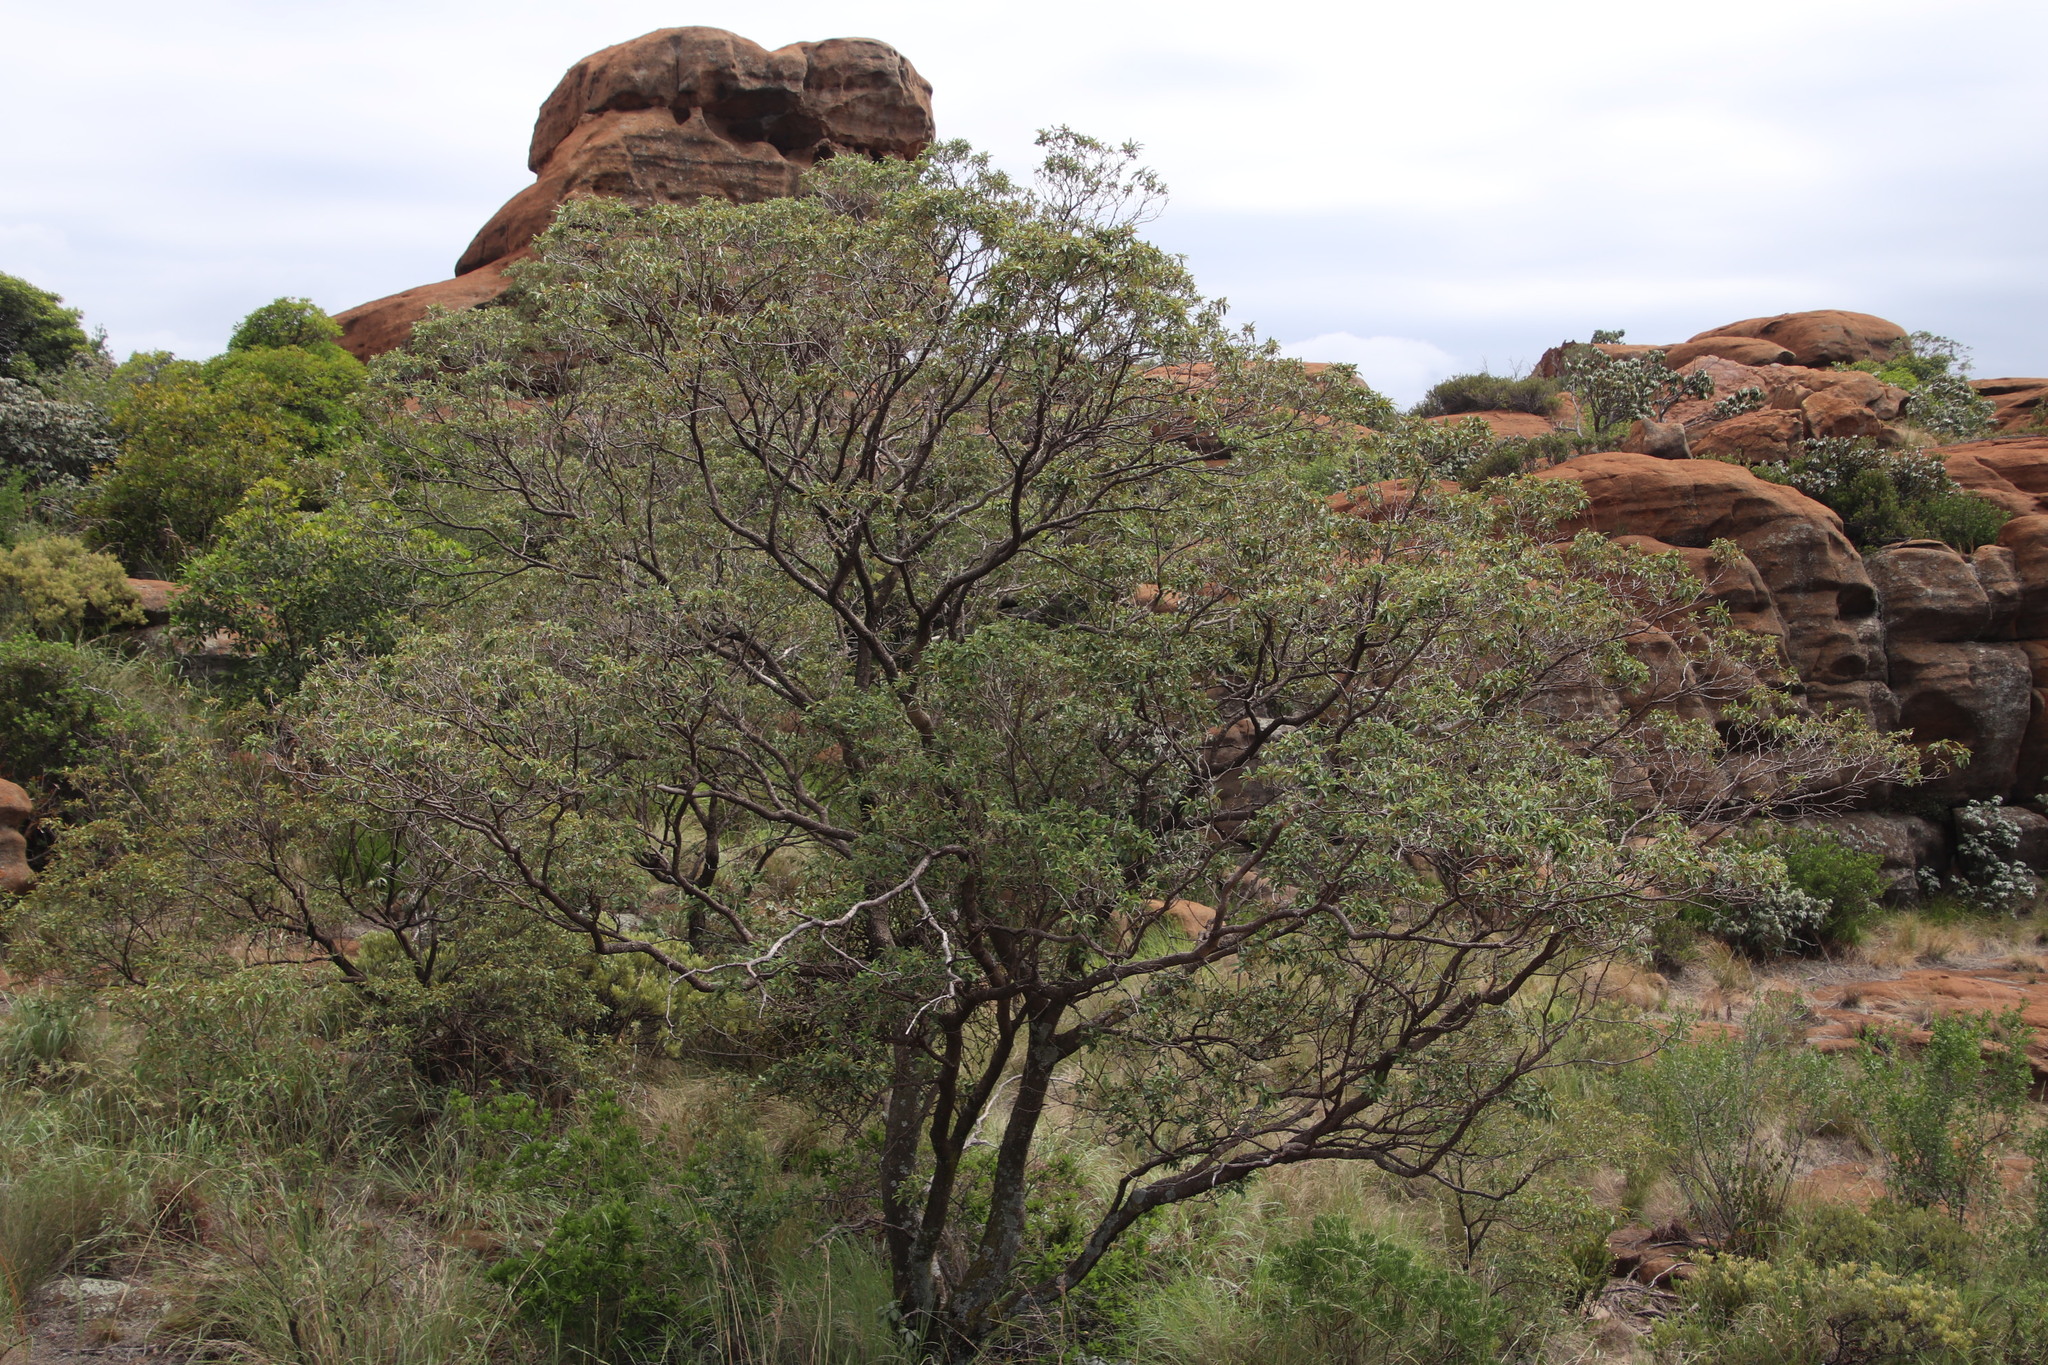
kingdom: Plantae
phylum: Tracheophyta
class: Magnoliopsida
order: Malpighiales
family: Euphorbiaceae
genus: Croton
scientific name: Croton gratissimus
